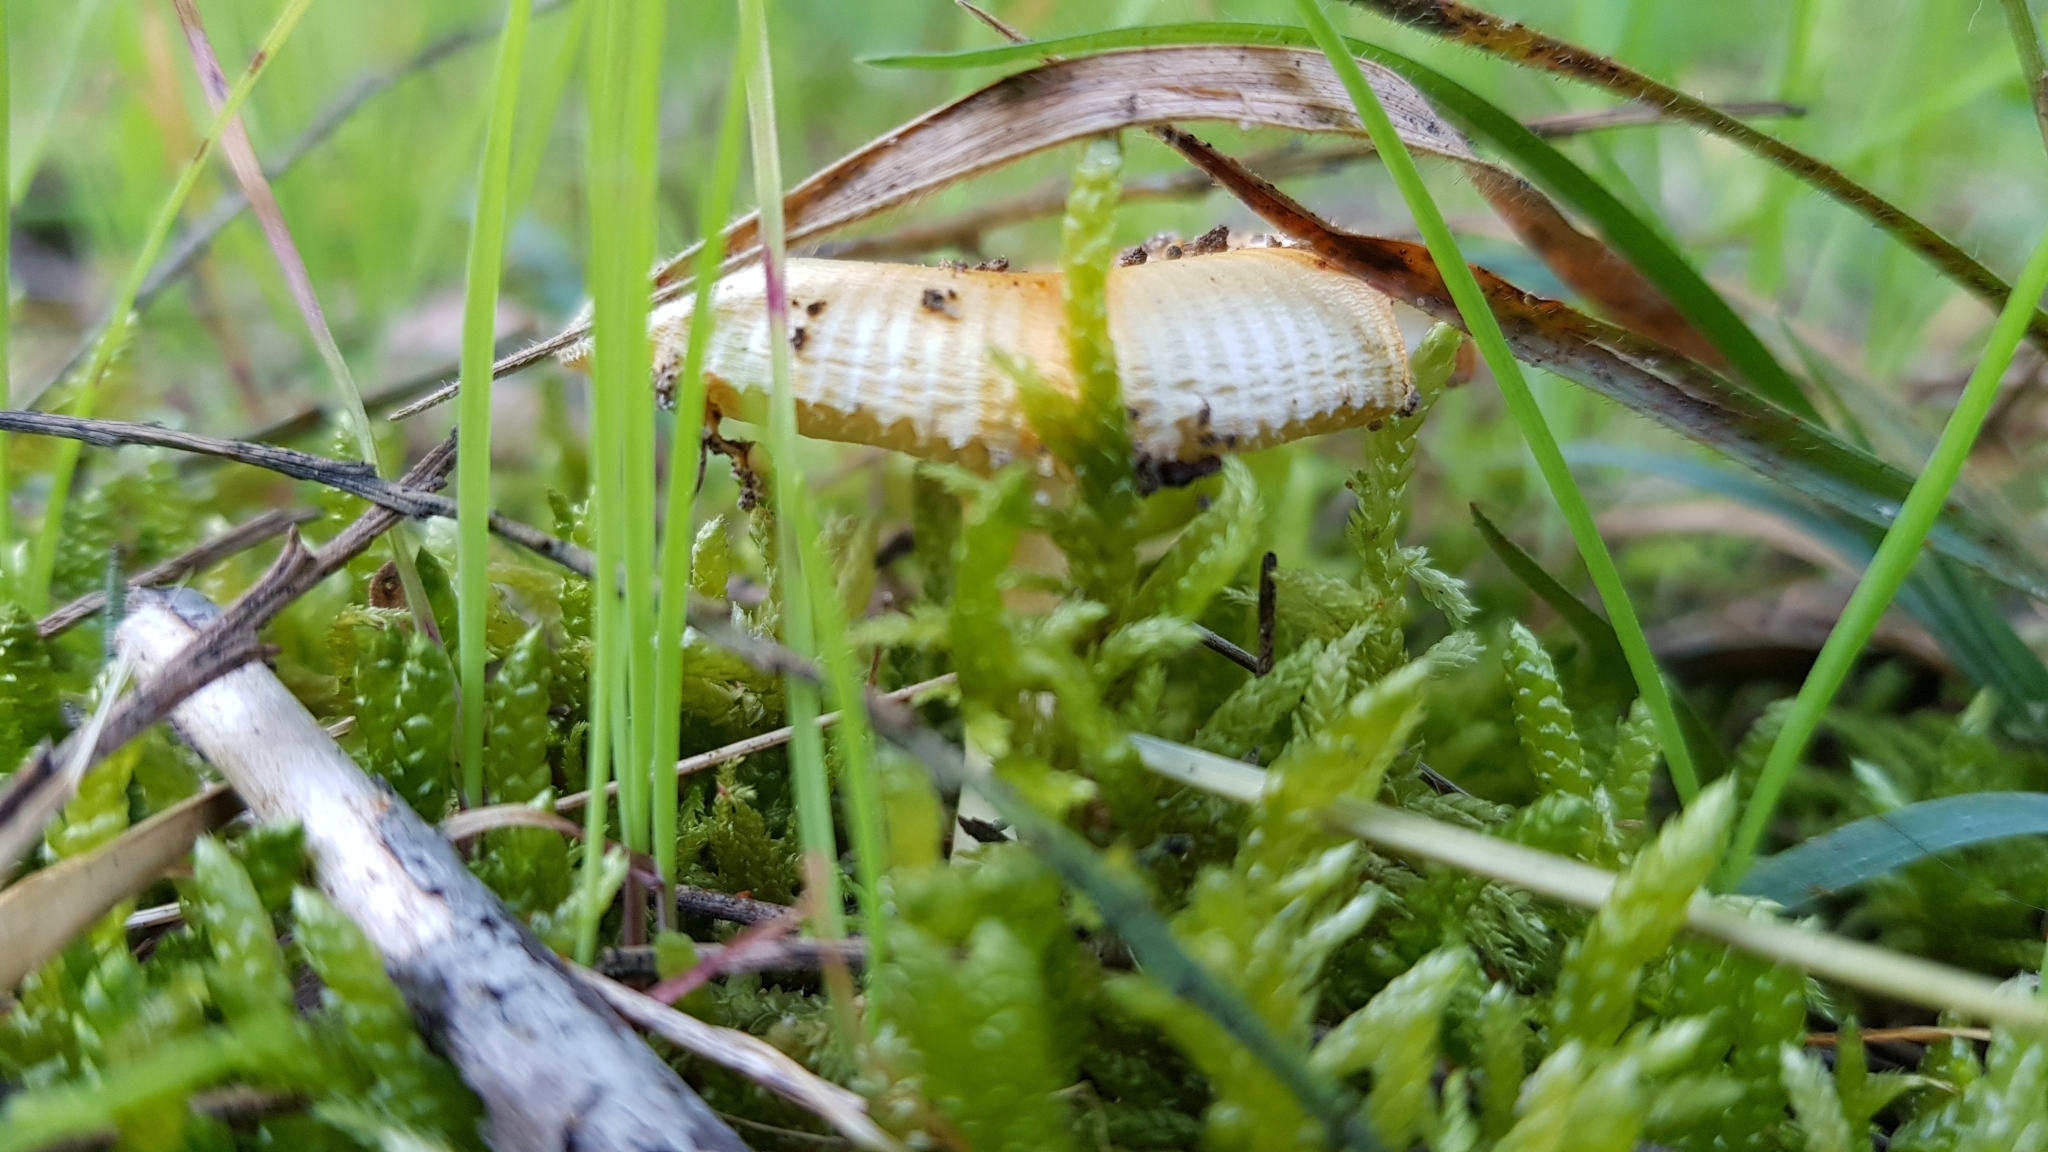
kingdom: Fungi
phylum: Basidiomycota
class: Agaricomycetes
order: Agaricales
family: Amanitaceae
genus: Amanita
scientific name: Amanita xanthocephala
